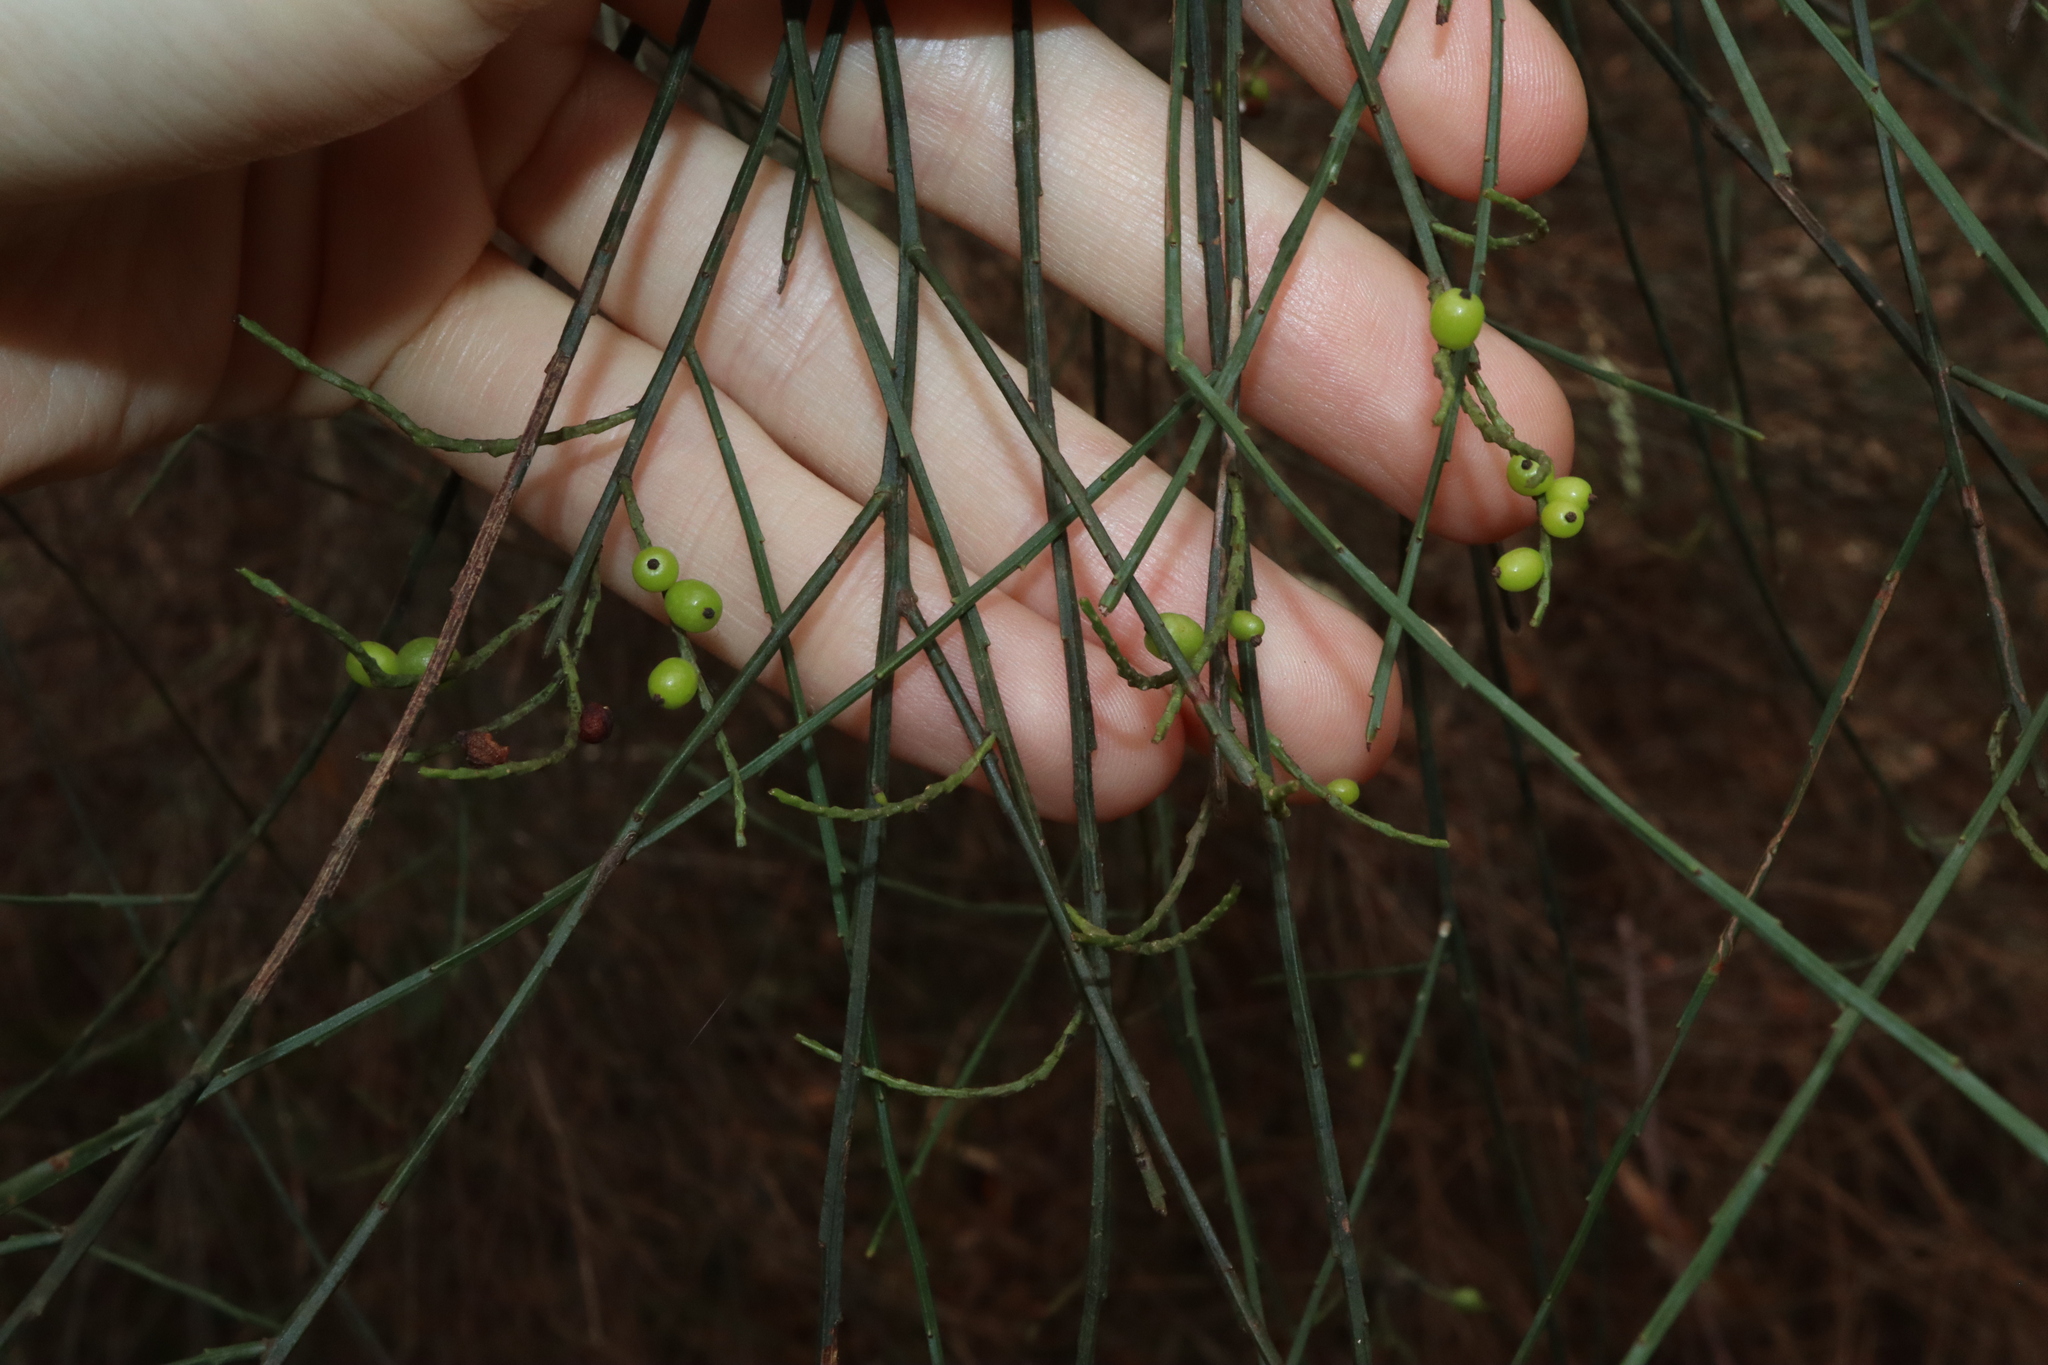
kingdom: Plantae
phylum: Tracheophyta
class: Magnoliopsida
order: Santalales
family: Amphorogynaceae
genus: Leptomeria
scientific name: Leptomeria acida
